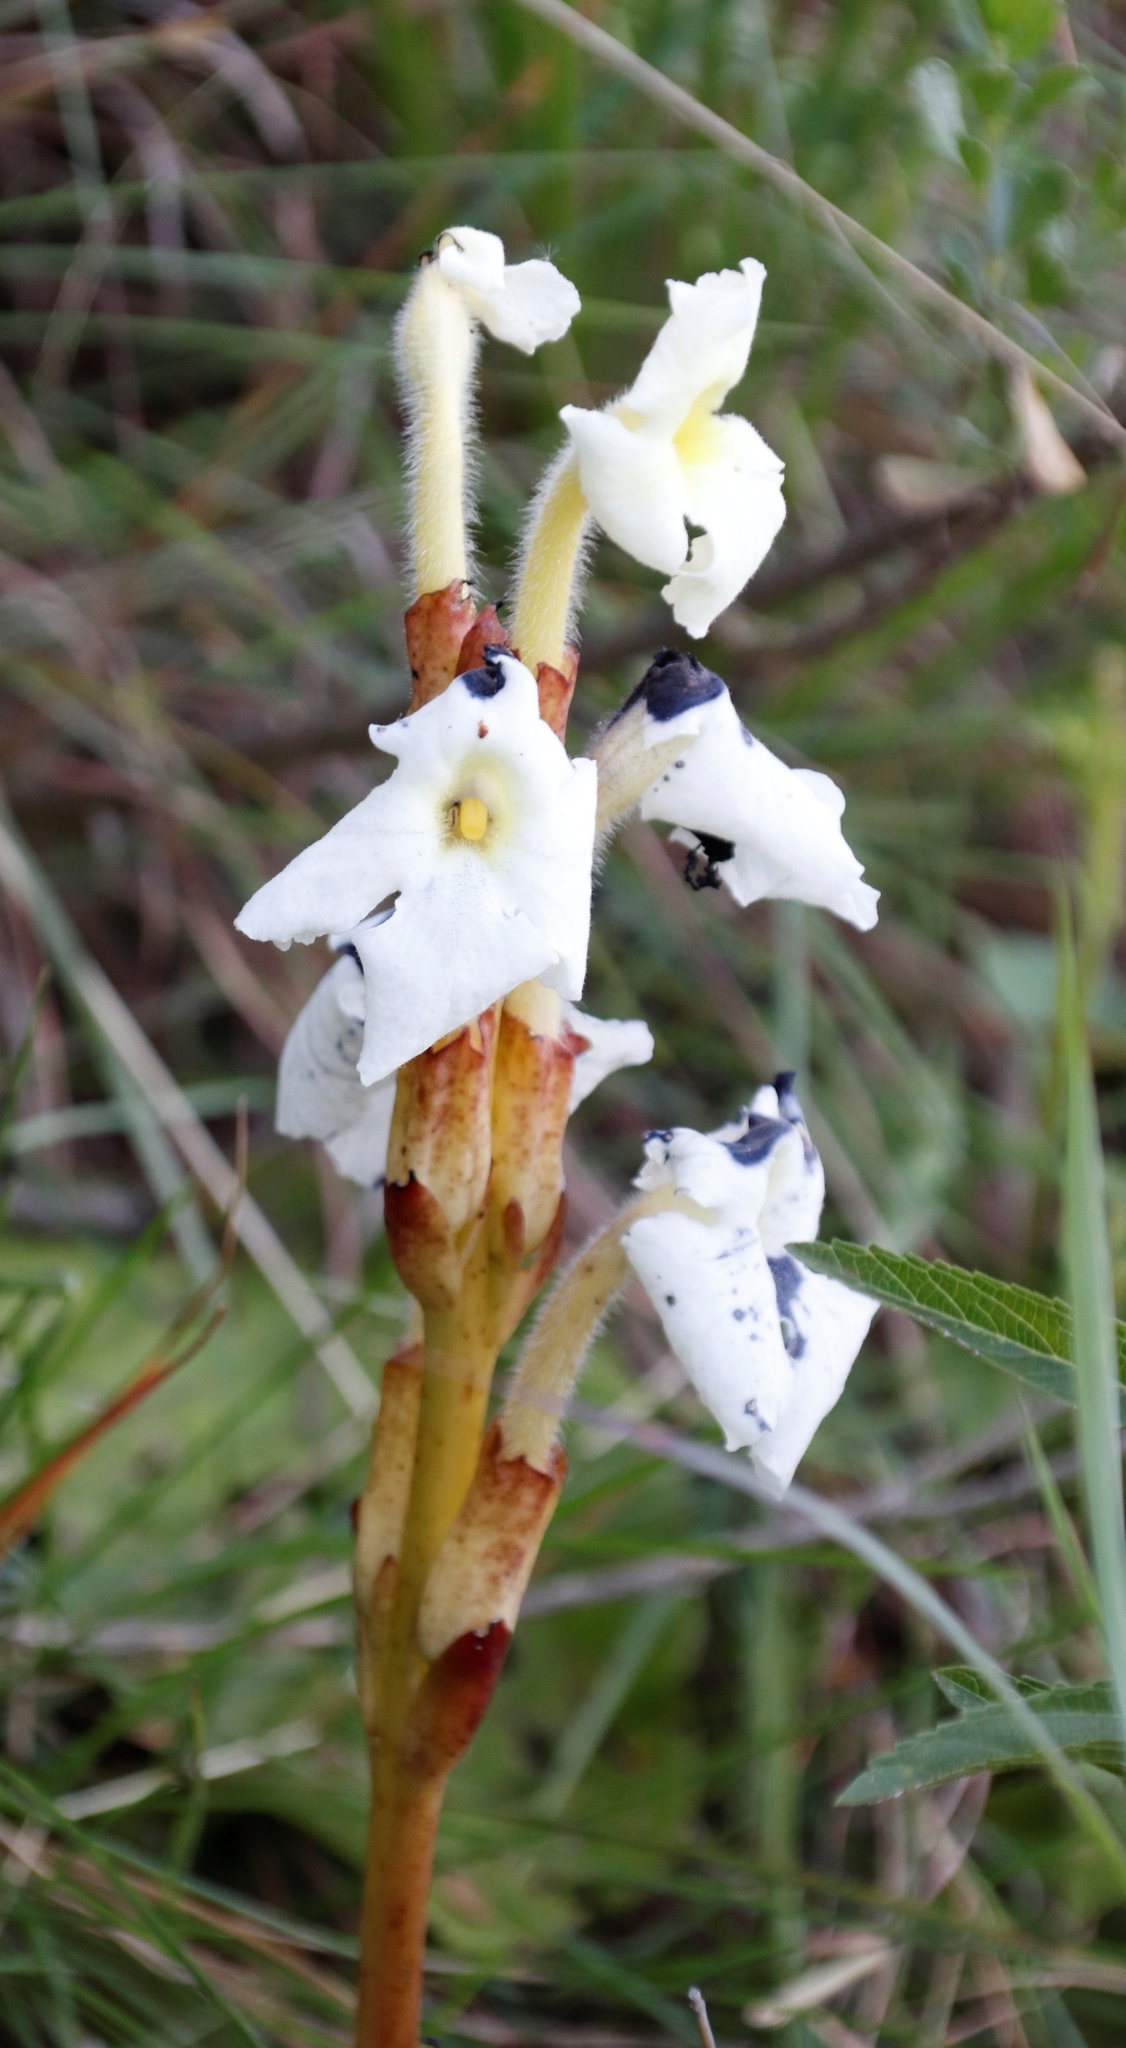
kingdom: Plantae
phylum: Tracheophyta
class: Magnoliopsida
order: Lamiales
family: Orobanchaceae
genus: Harveya
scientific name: Harveya speciosa
